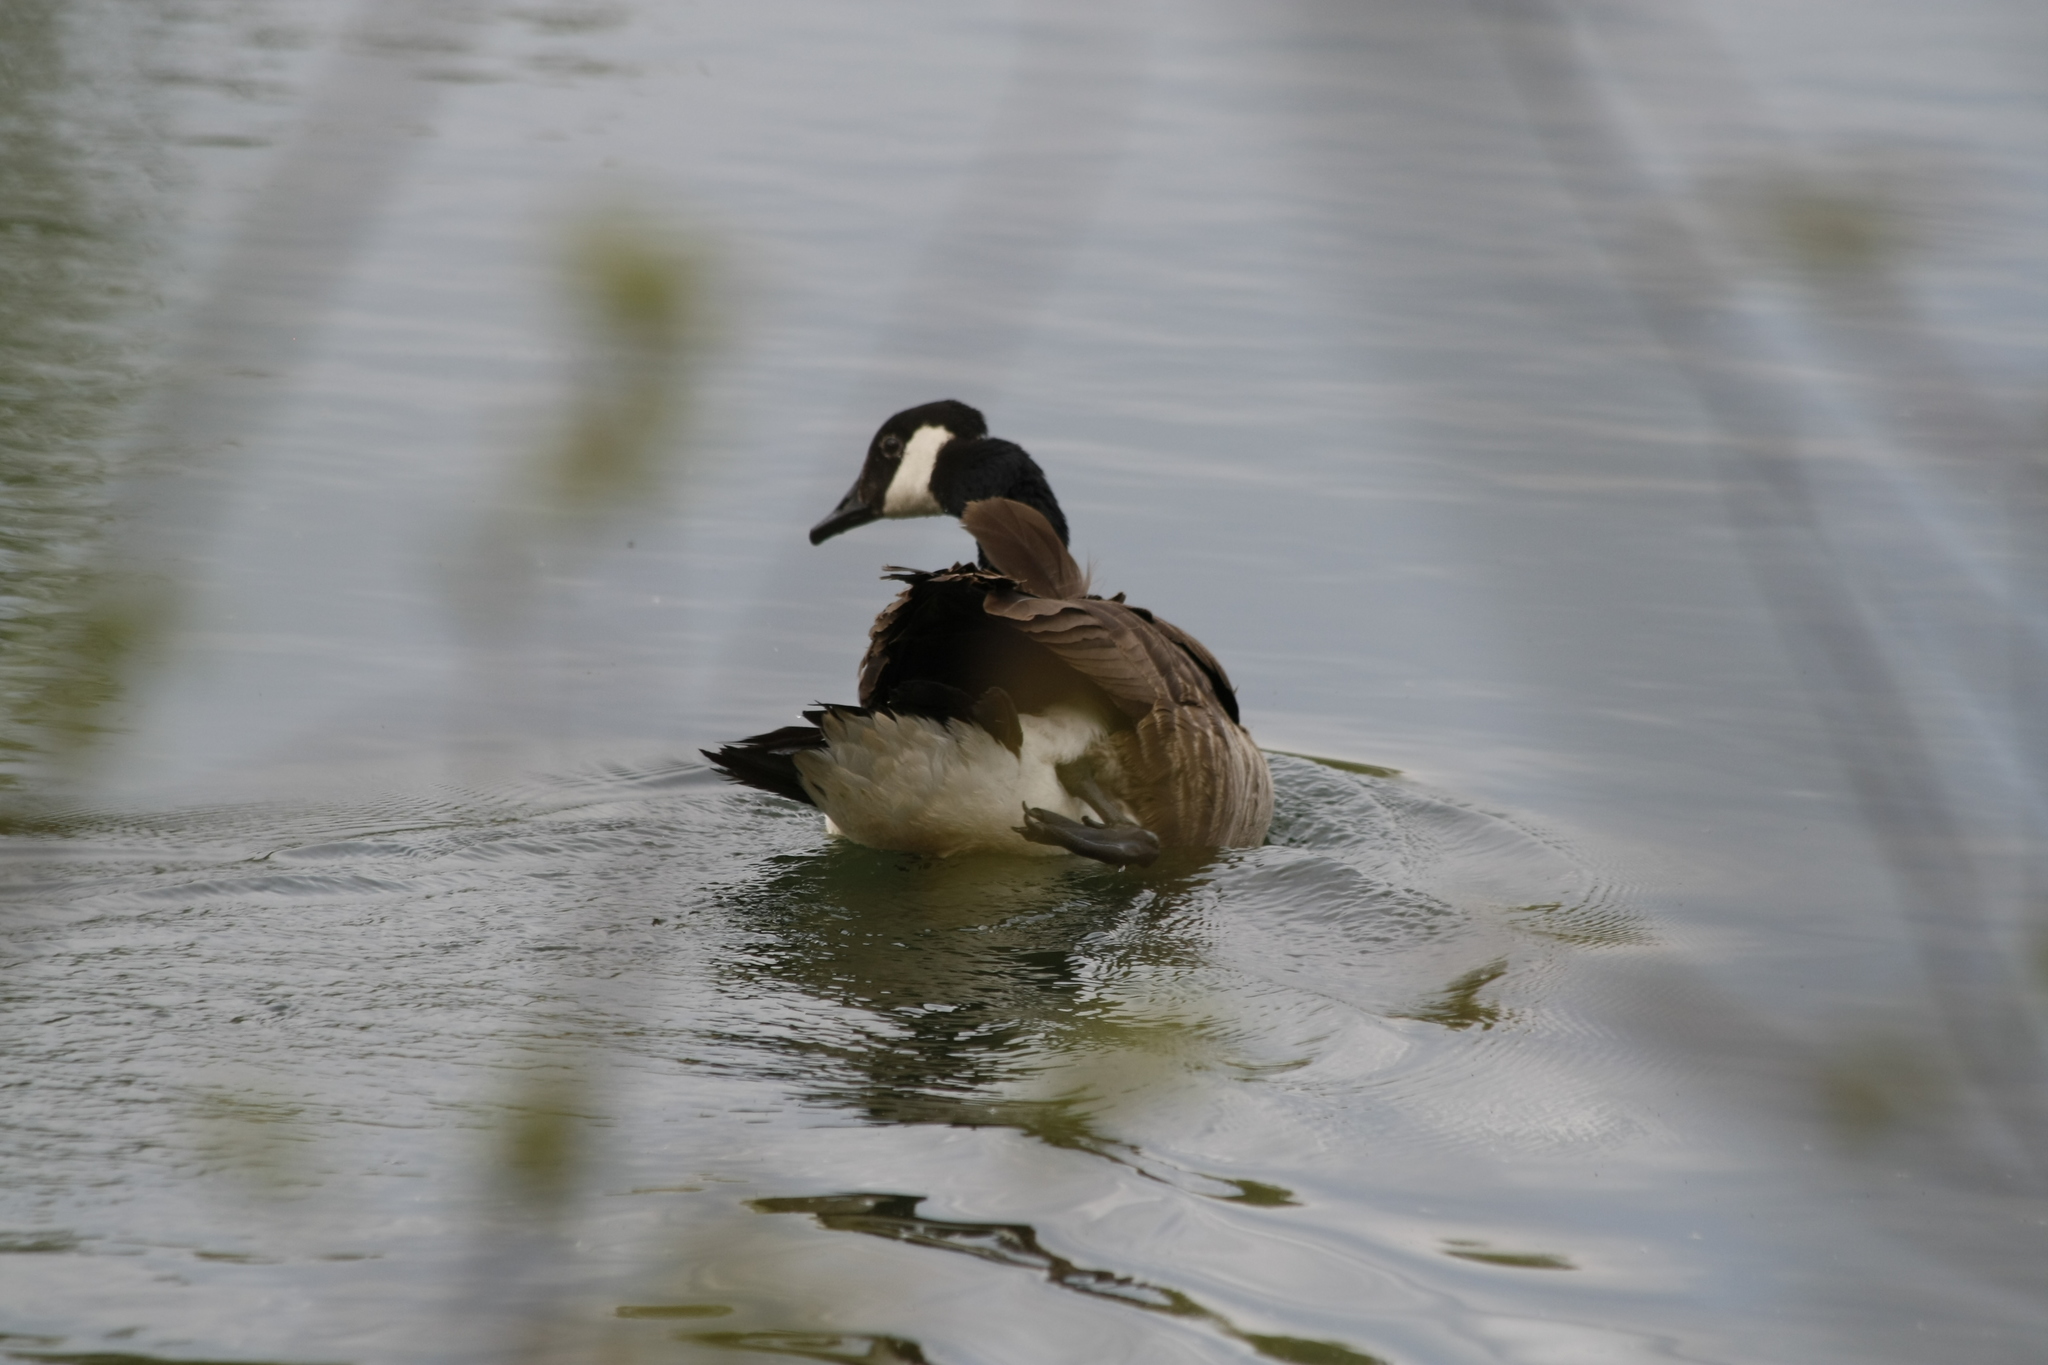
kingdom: Animalia
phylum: Chordata
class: Aves
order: Anseriformes
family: Anatidae
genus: Branta
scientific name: Branta canadensis
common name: Canada goose
